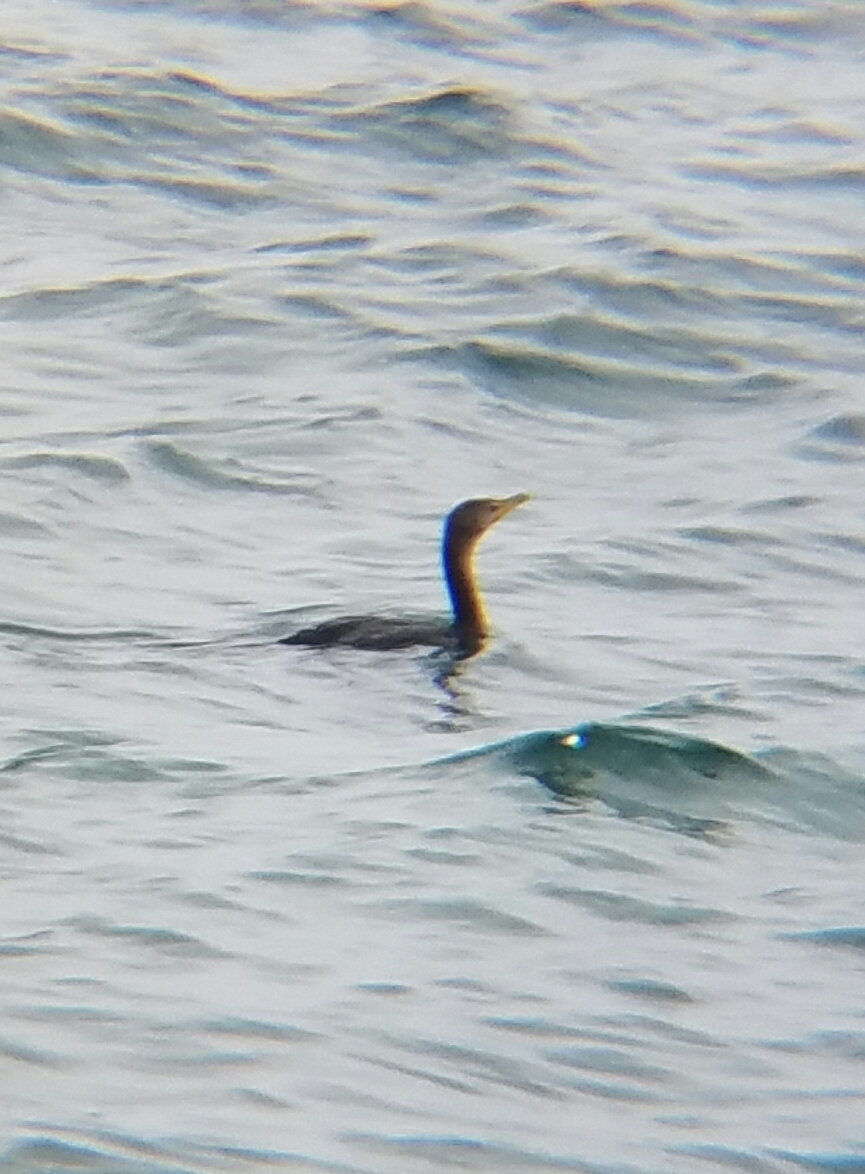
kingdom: Animalia
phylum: Chordata
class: Aves
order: Suliformes
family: Phalacrocoracidae
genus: Phalacrocorax
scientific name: Phalacrocorax auritus
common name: Double-crested cormorant
